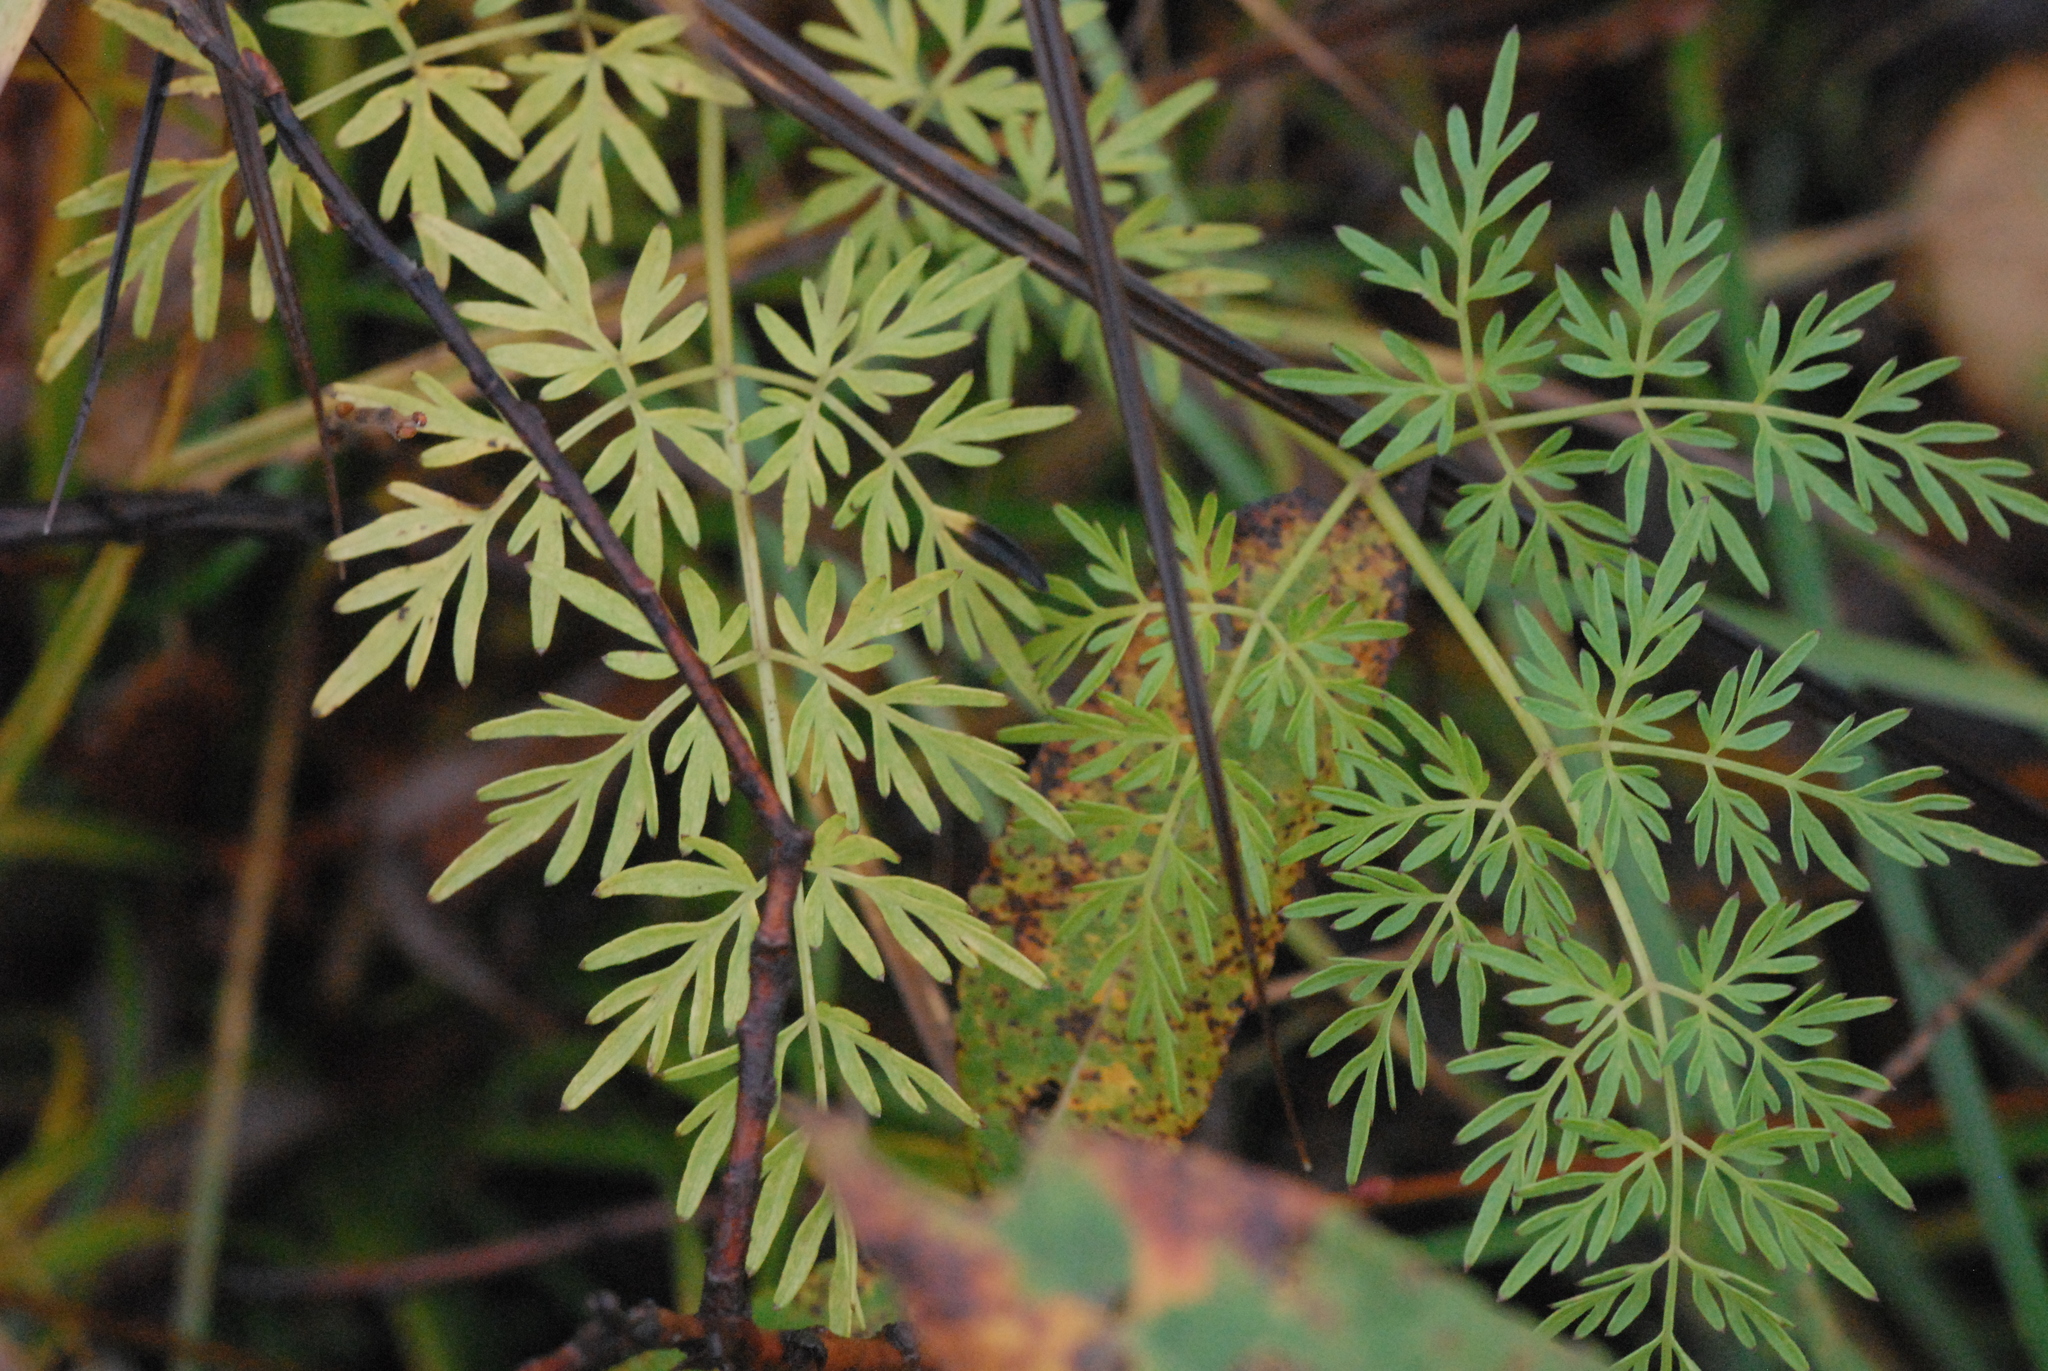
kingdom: Plantae
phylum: Tracheophyta
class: Magnoliopsida
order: Apiales
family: Apiaceae
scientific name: Apiaceae
